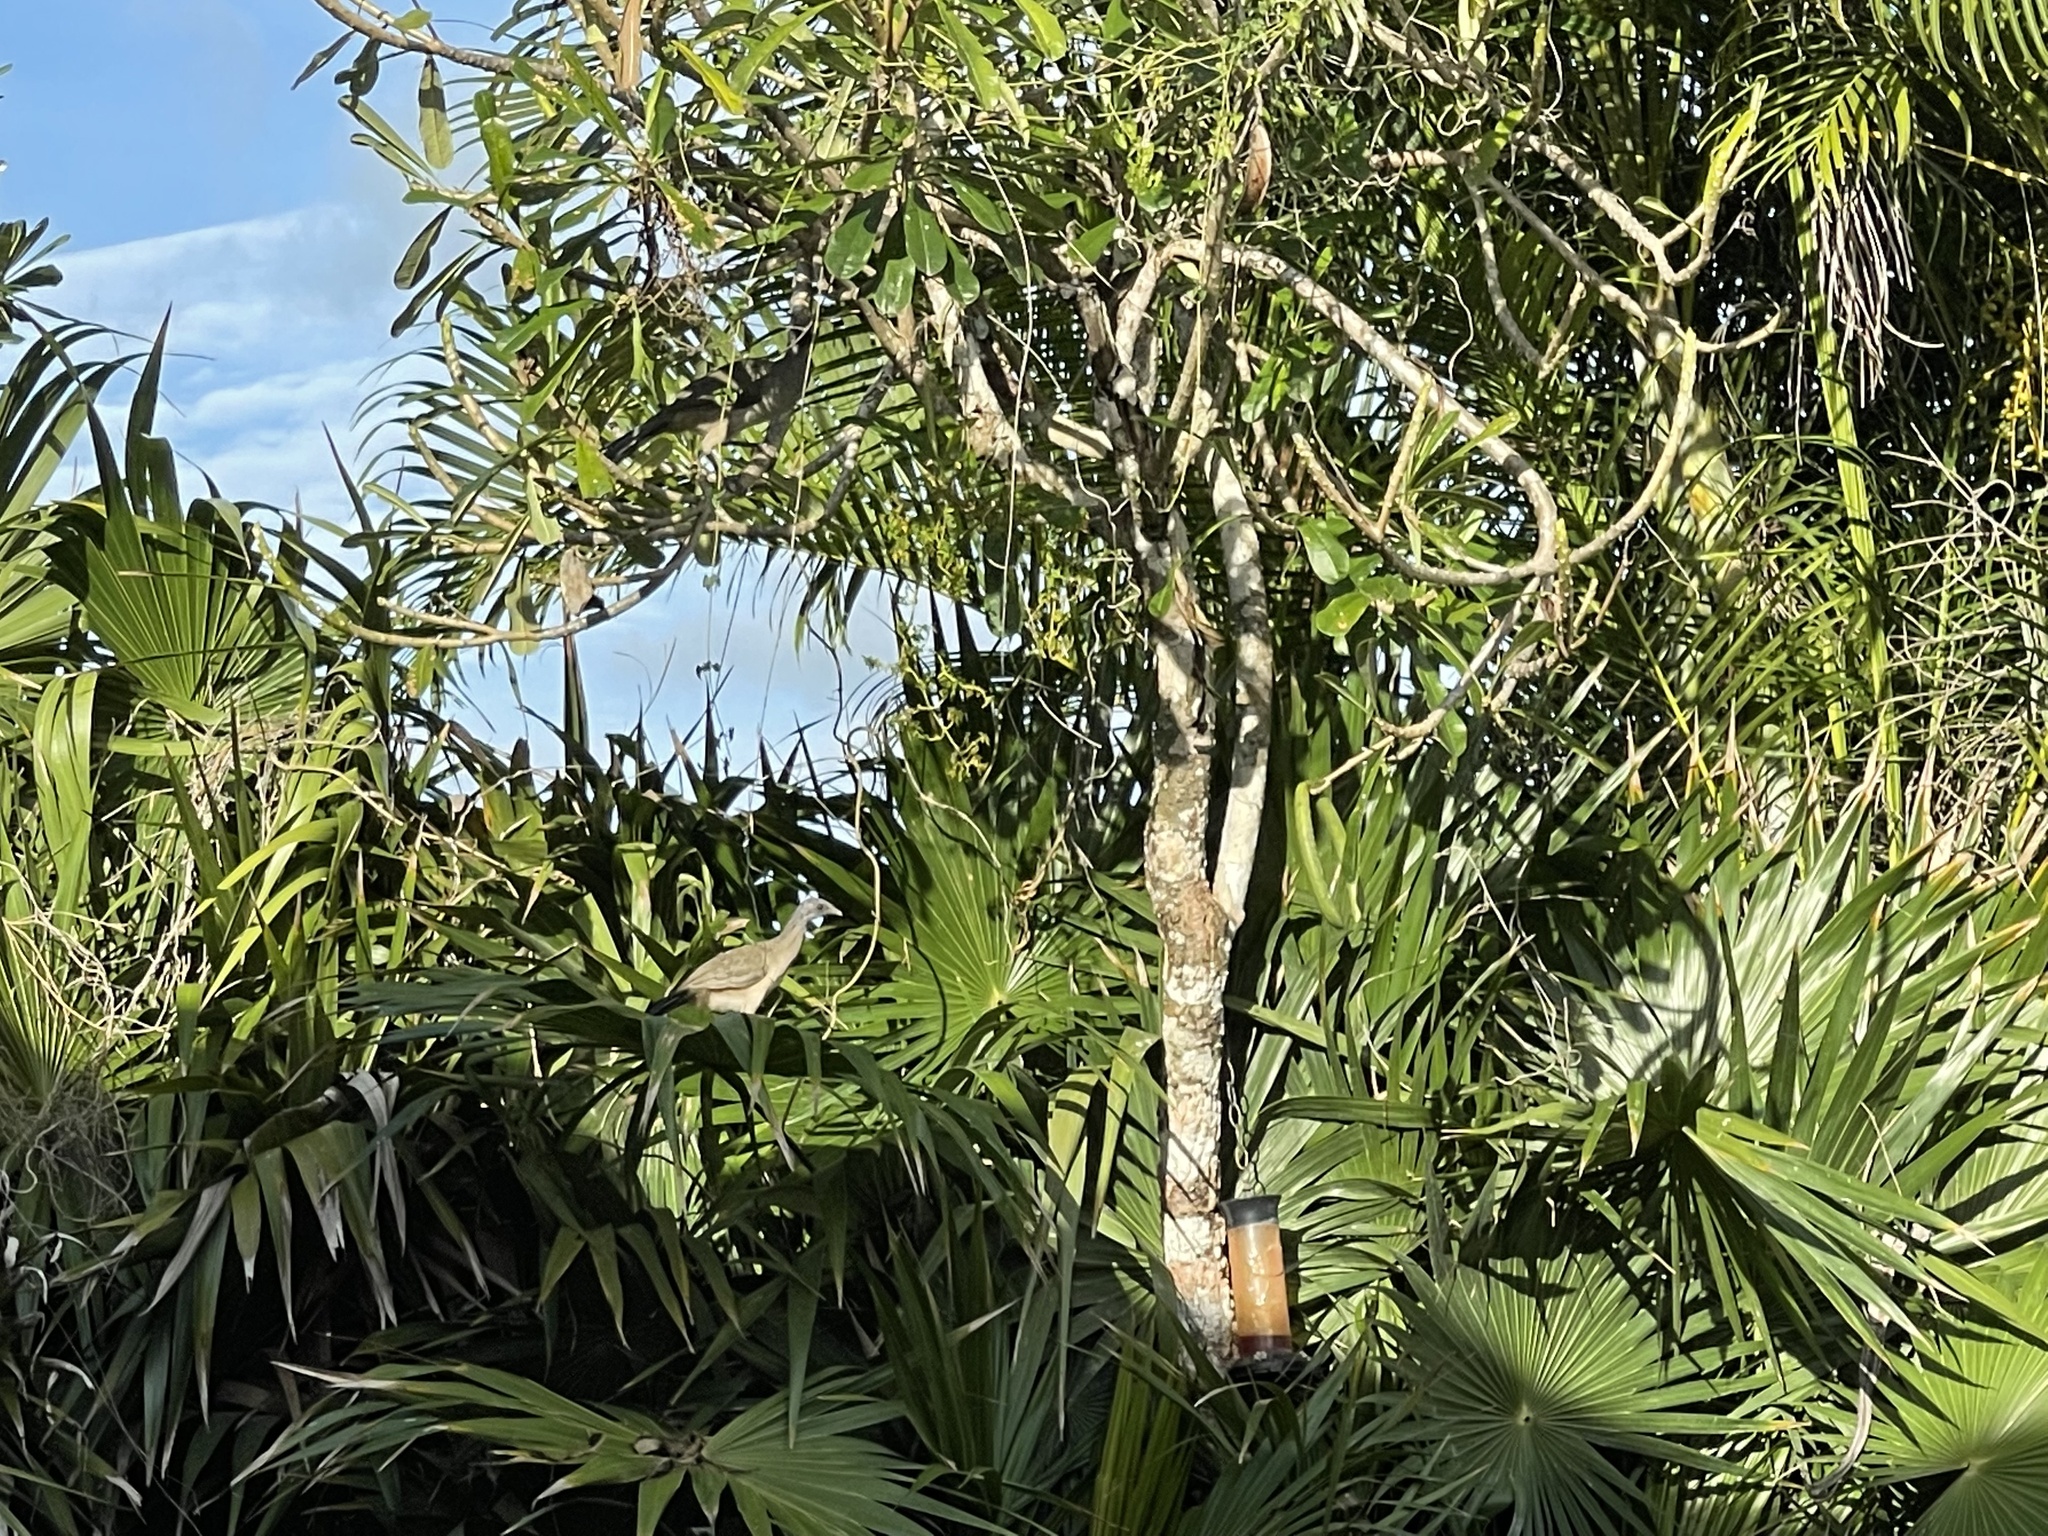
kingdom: Animalia
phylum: Chordata
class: Aves
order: Galliformes
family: Cracidae
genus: Ortalis
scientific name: Ortalis vetula
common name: Plain chachalaca
